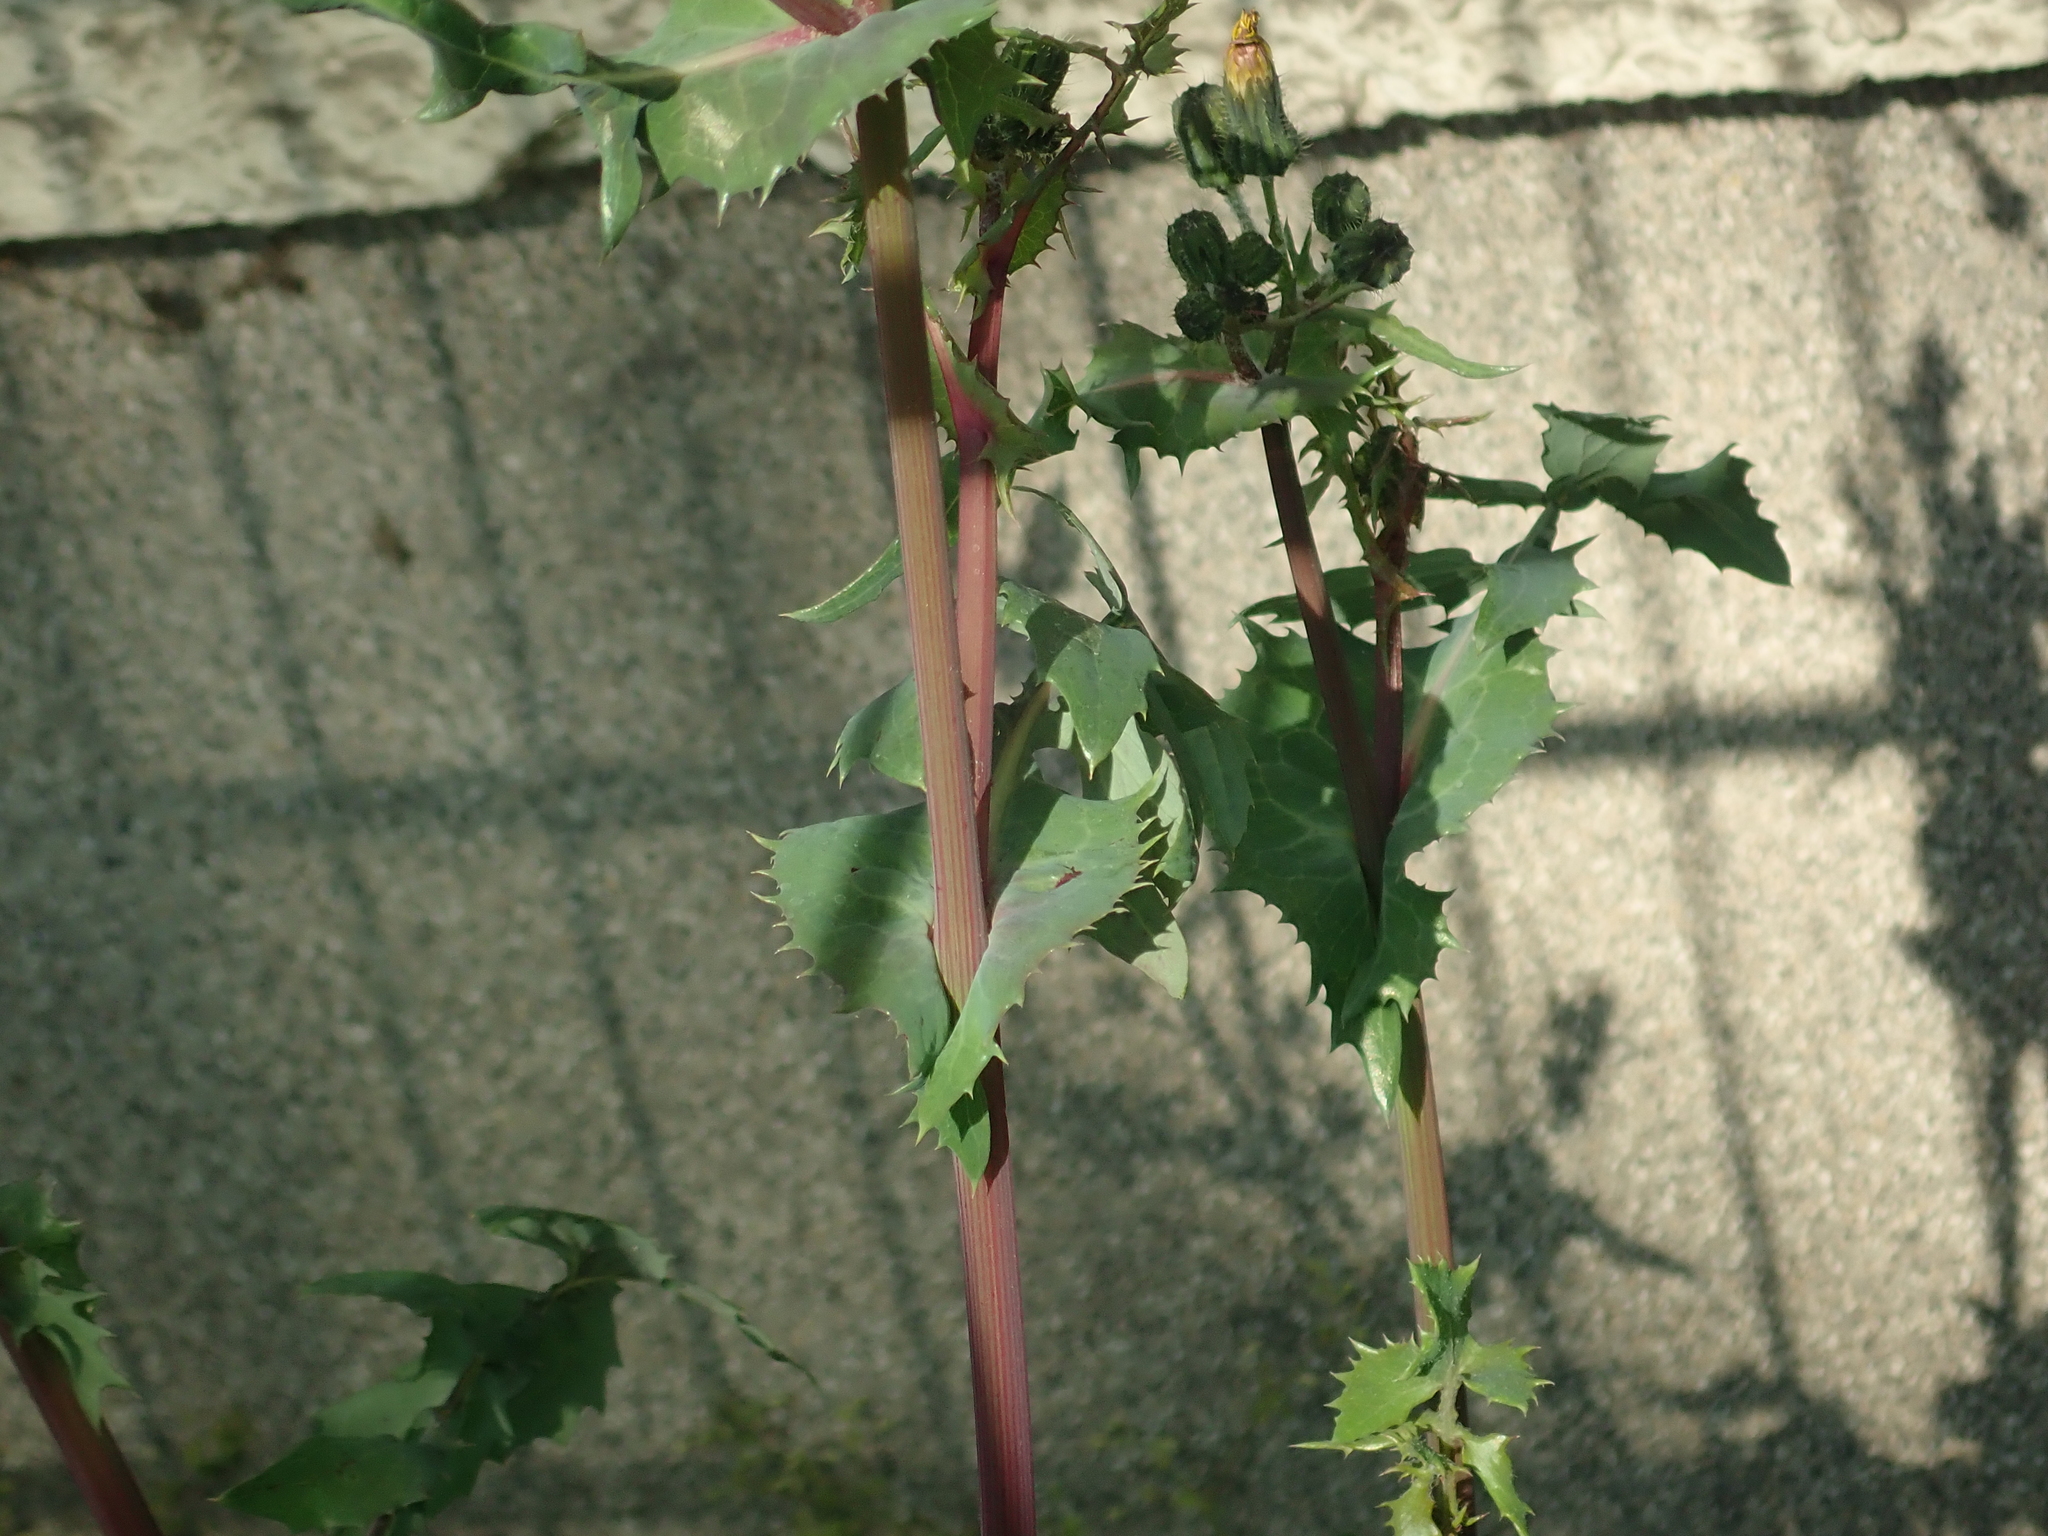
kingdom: Plantae
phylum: Tracheophyta
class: Magnoliopsida
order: Asterales
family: Asteraceae
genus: Sonchus
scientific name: Sonchus oleraceus
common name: Common sowthistle
